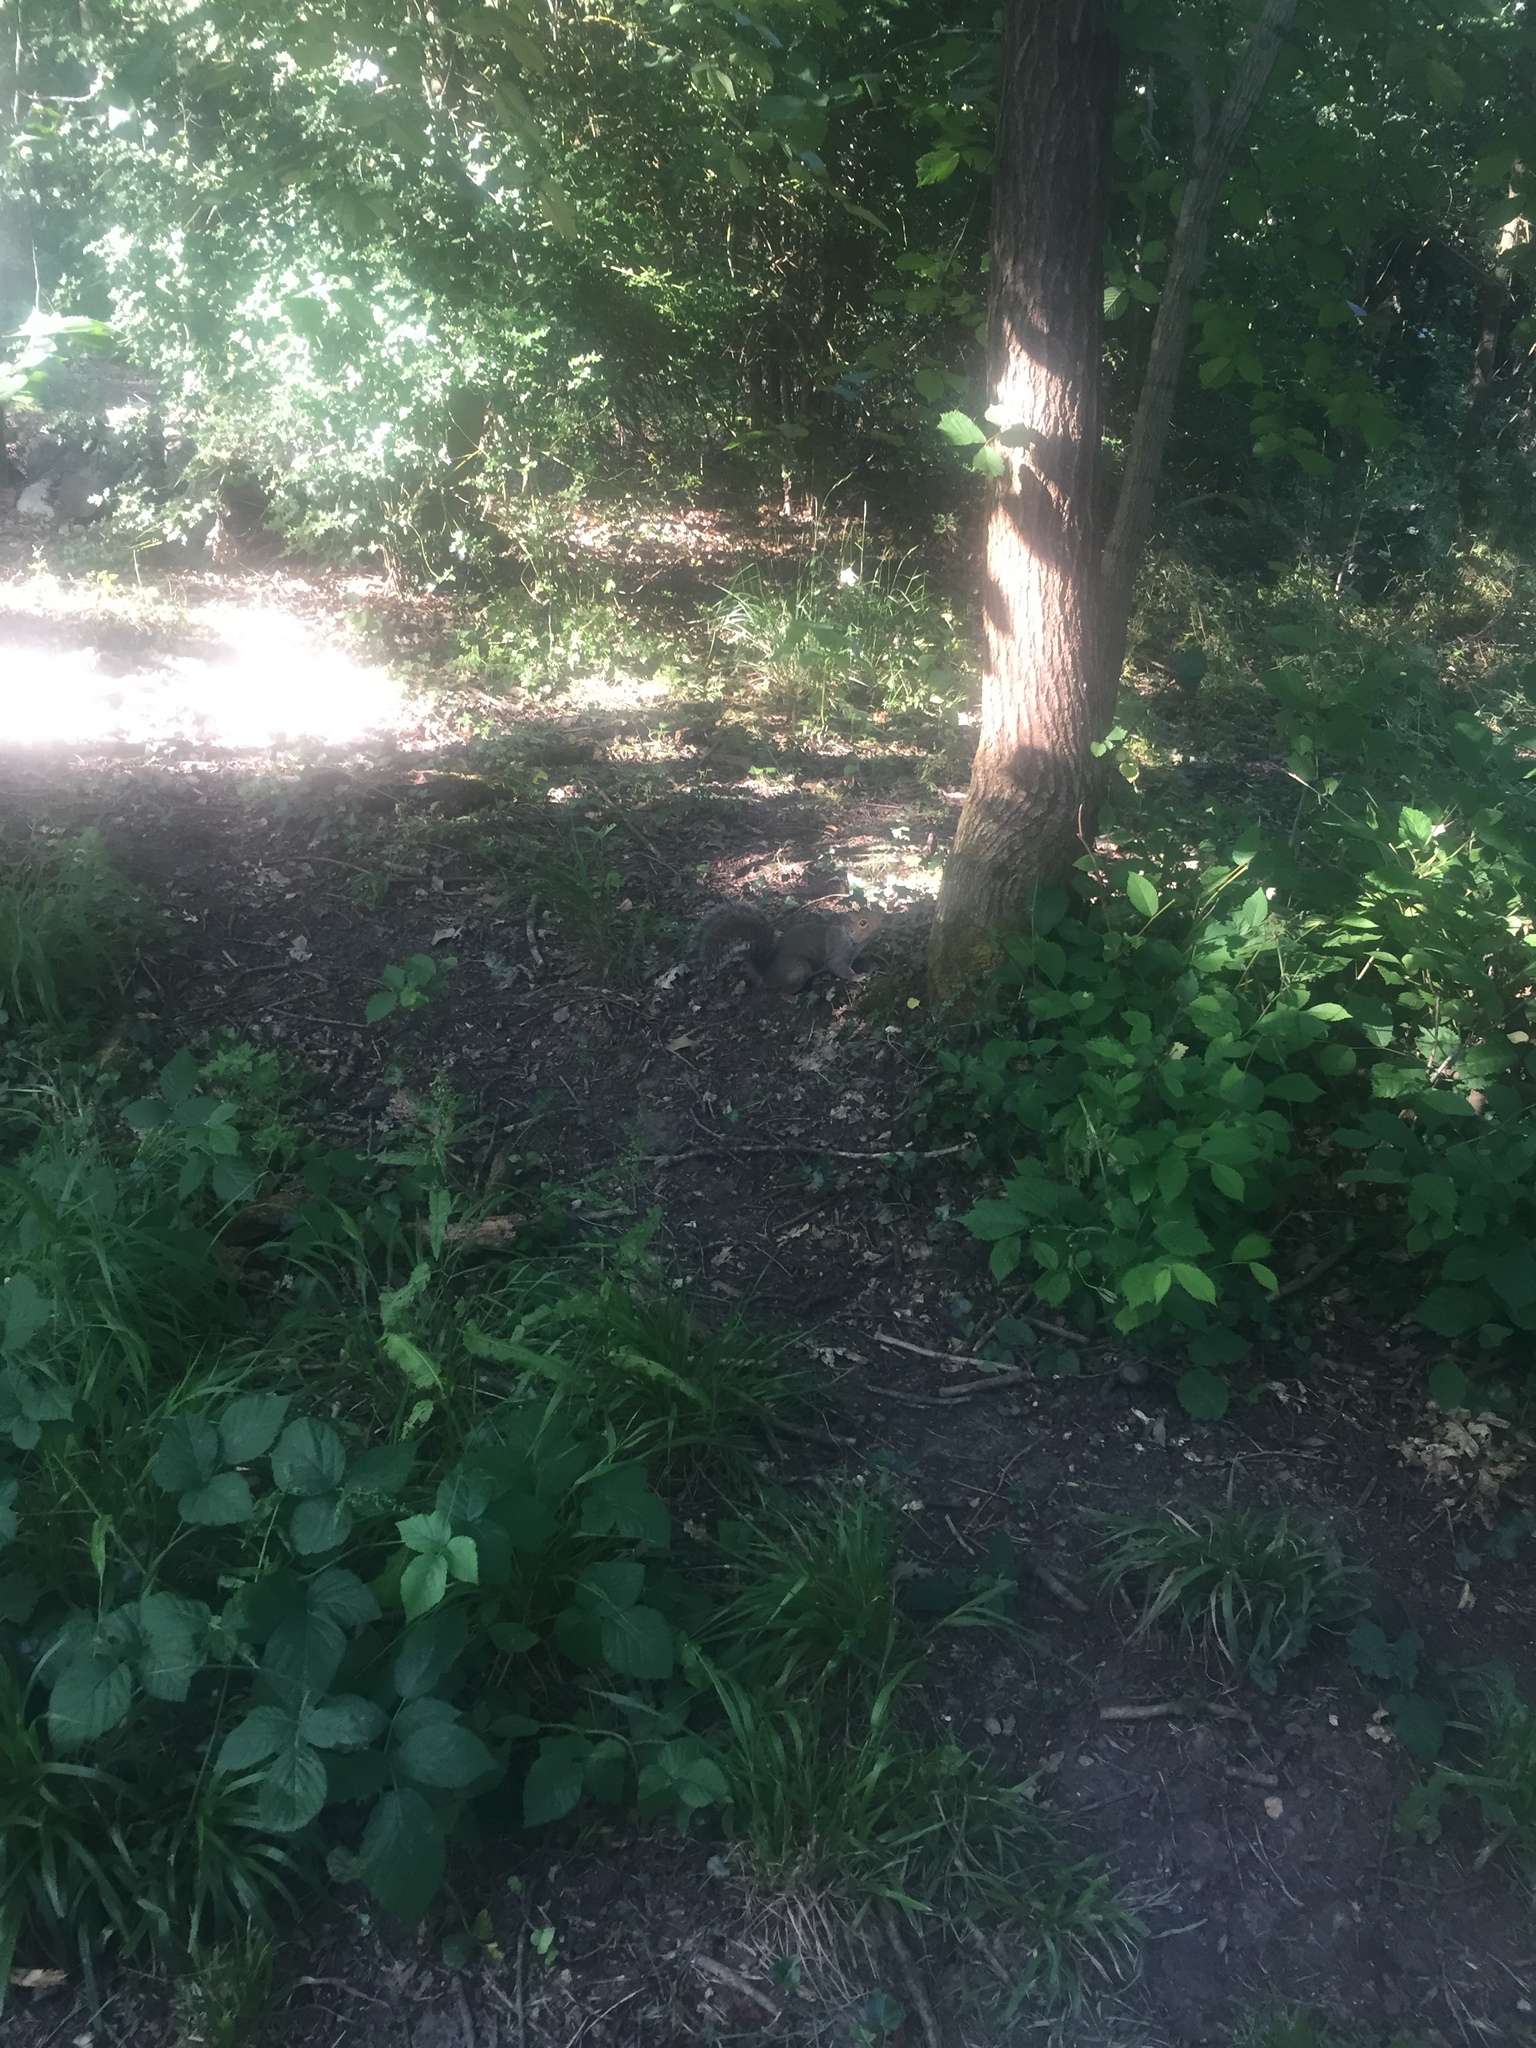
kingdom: Animalia
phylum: Chordata
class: Mammalia
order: Rodentia
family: Sciuridae
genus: Sciurus
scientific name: Sciurus carolinensis
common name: Eastern gray squirrel
